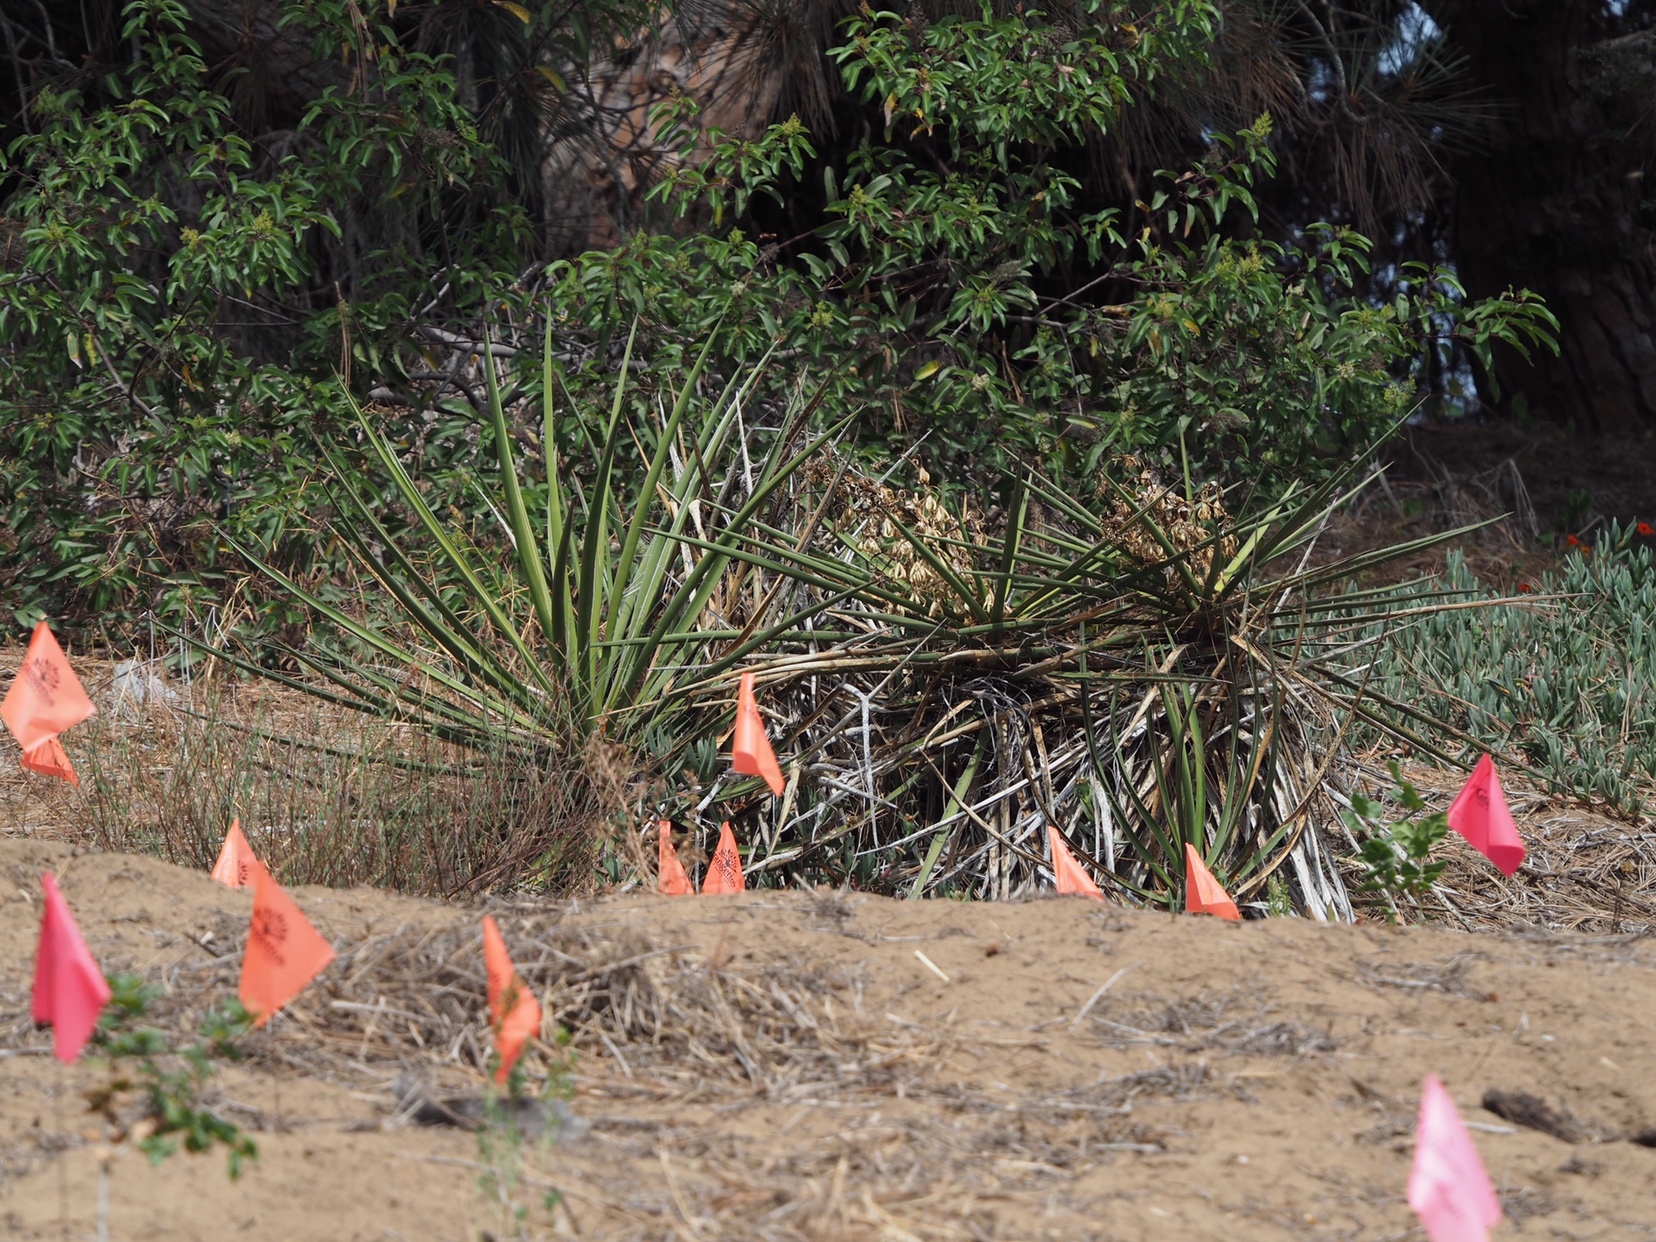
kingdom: Plantae
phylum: Tracheophyta
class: Liliopsida
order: Asparagales
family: Asparagaceae
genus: Yucca
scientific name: Yucca schidigera
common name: Mojave yucca
